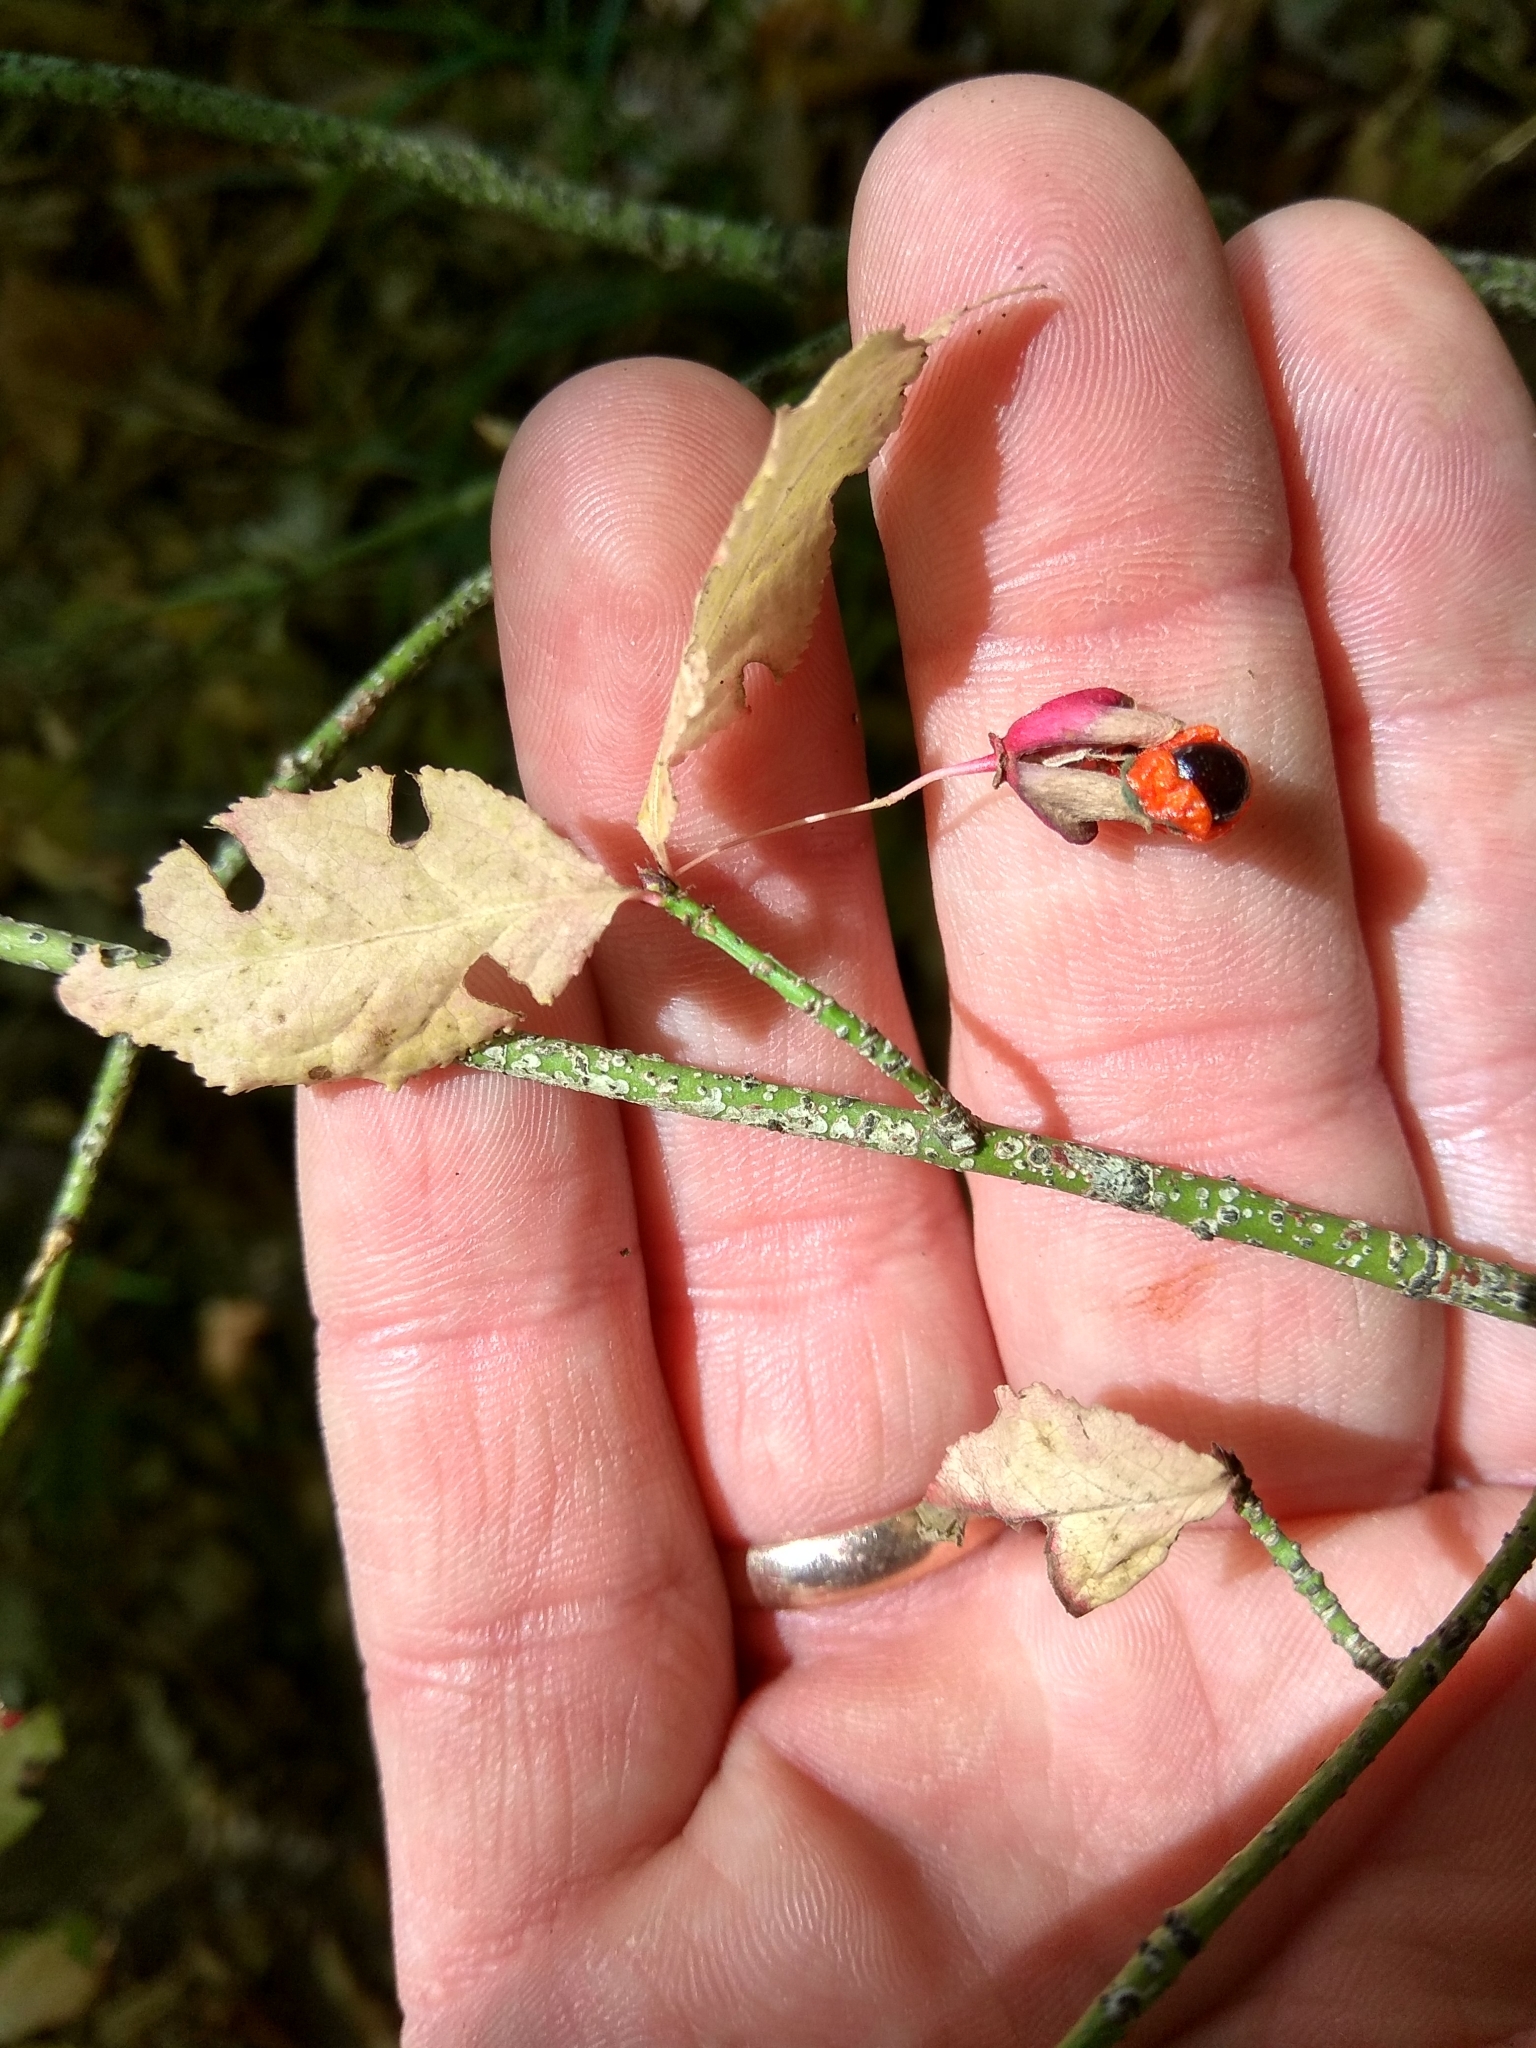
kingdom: Plantae
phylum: Tracheophyta
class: Magnoliopsida
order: Celastrales
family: Celastraceae
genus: Euonymus
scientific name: Euonymus verrucosus
